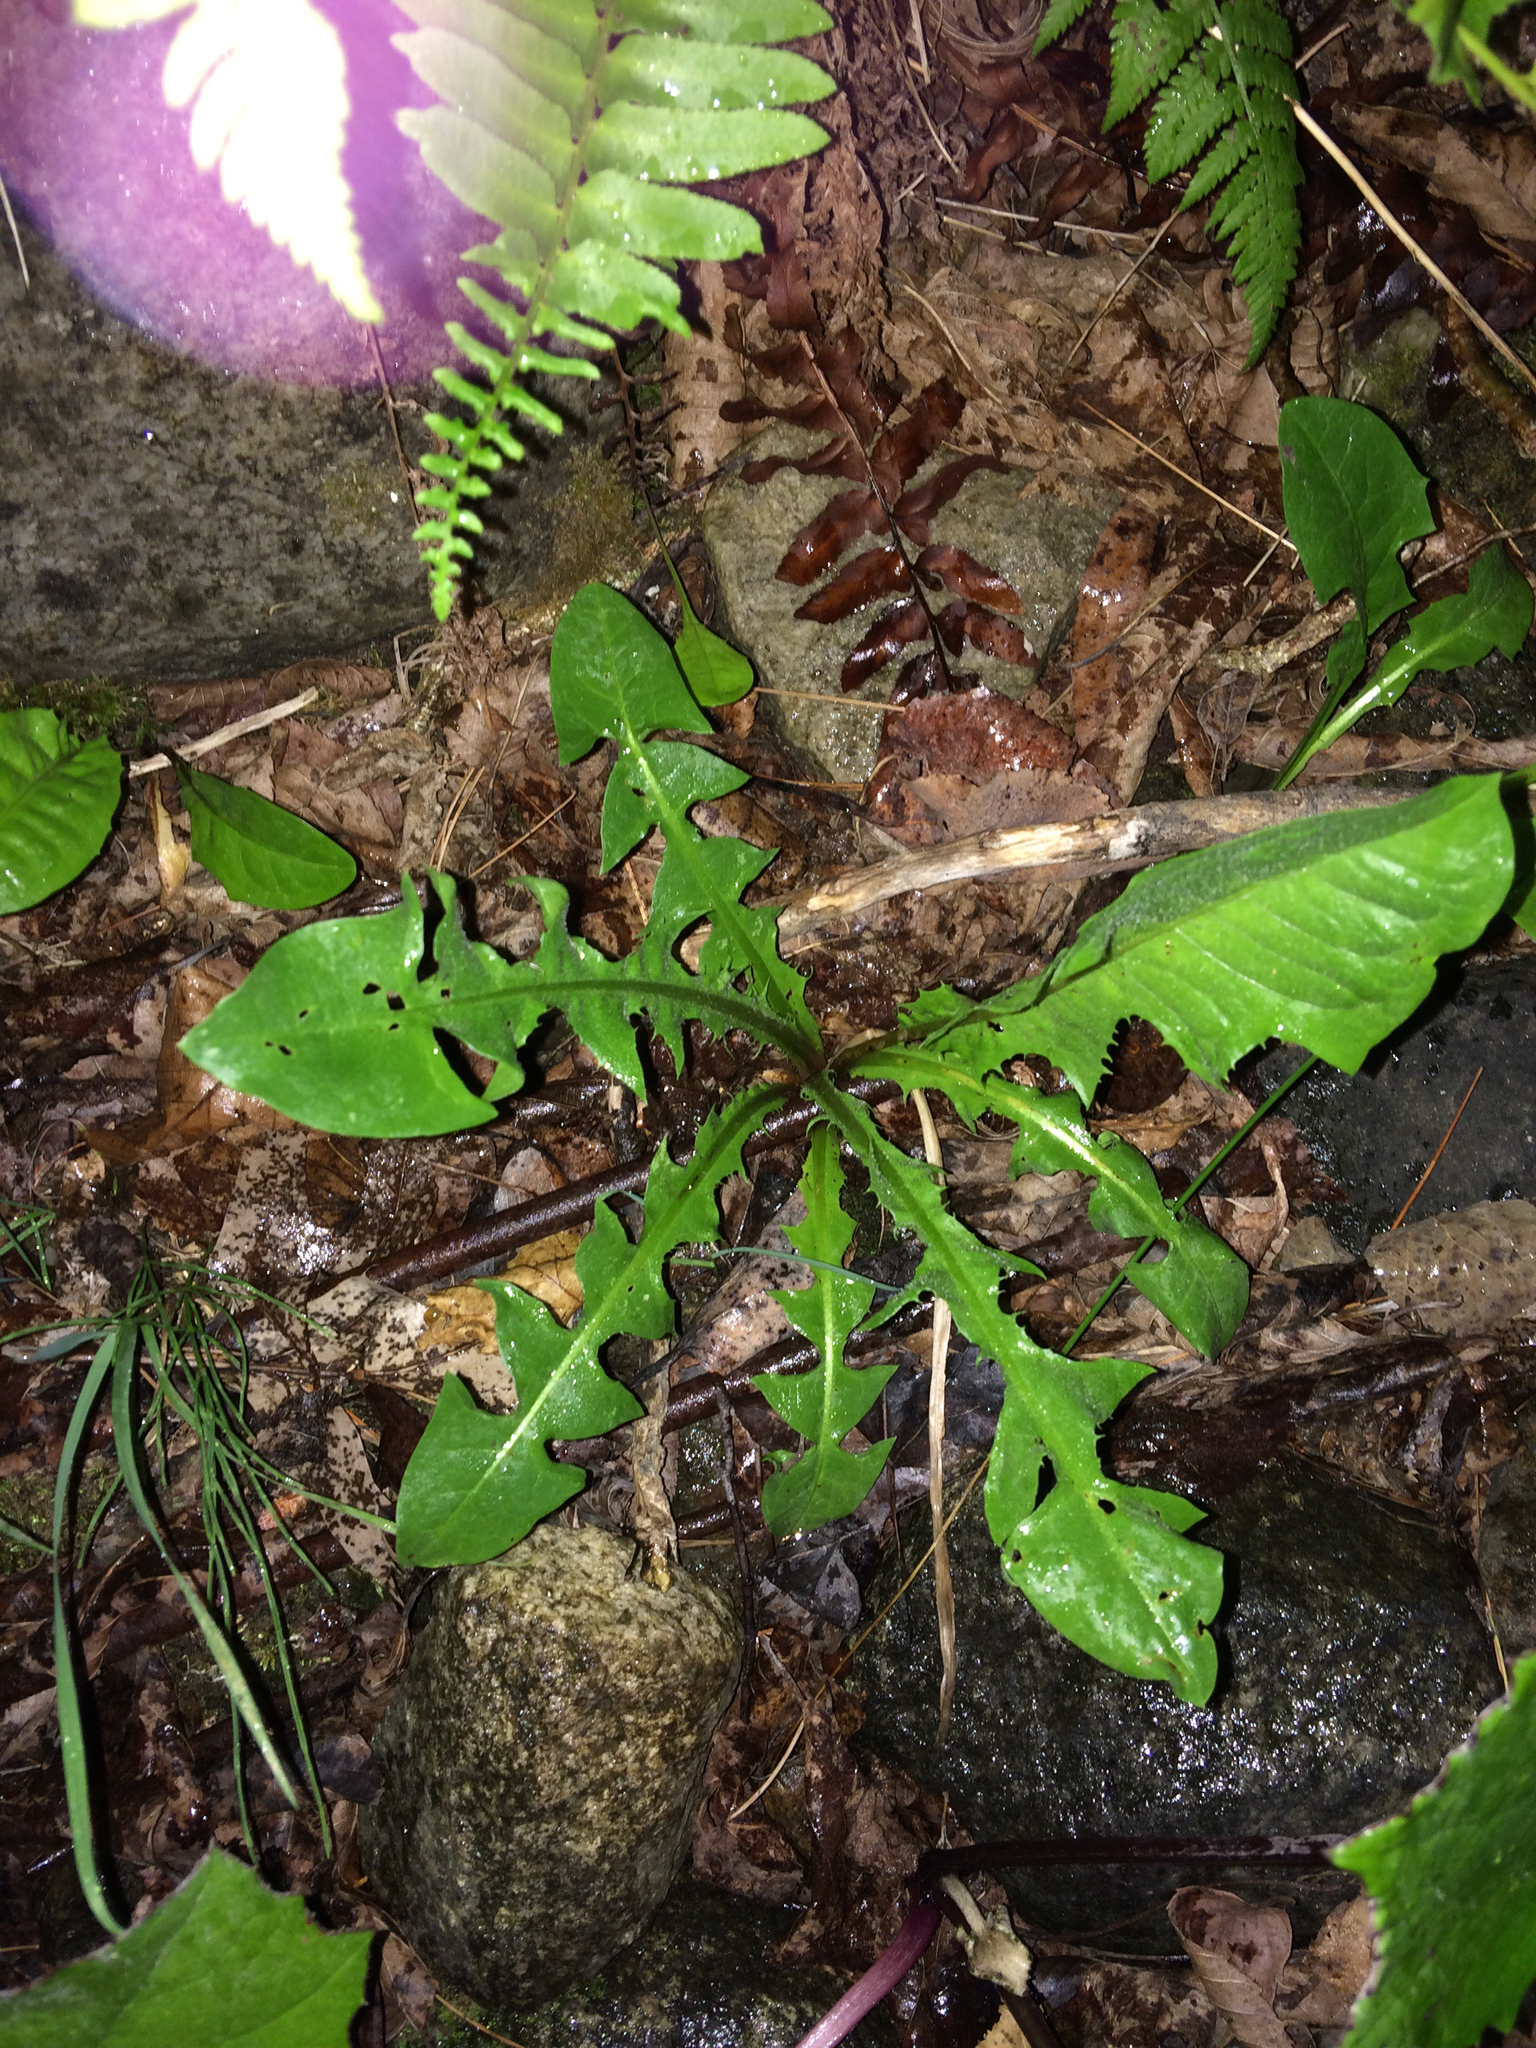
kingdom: Plantae
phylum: Tracheophyta
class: Magnoliopsida
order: Asterales
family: Asteraceae
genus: Taraxacum
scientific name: Taraxacum officinale
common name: Common dandelion
